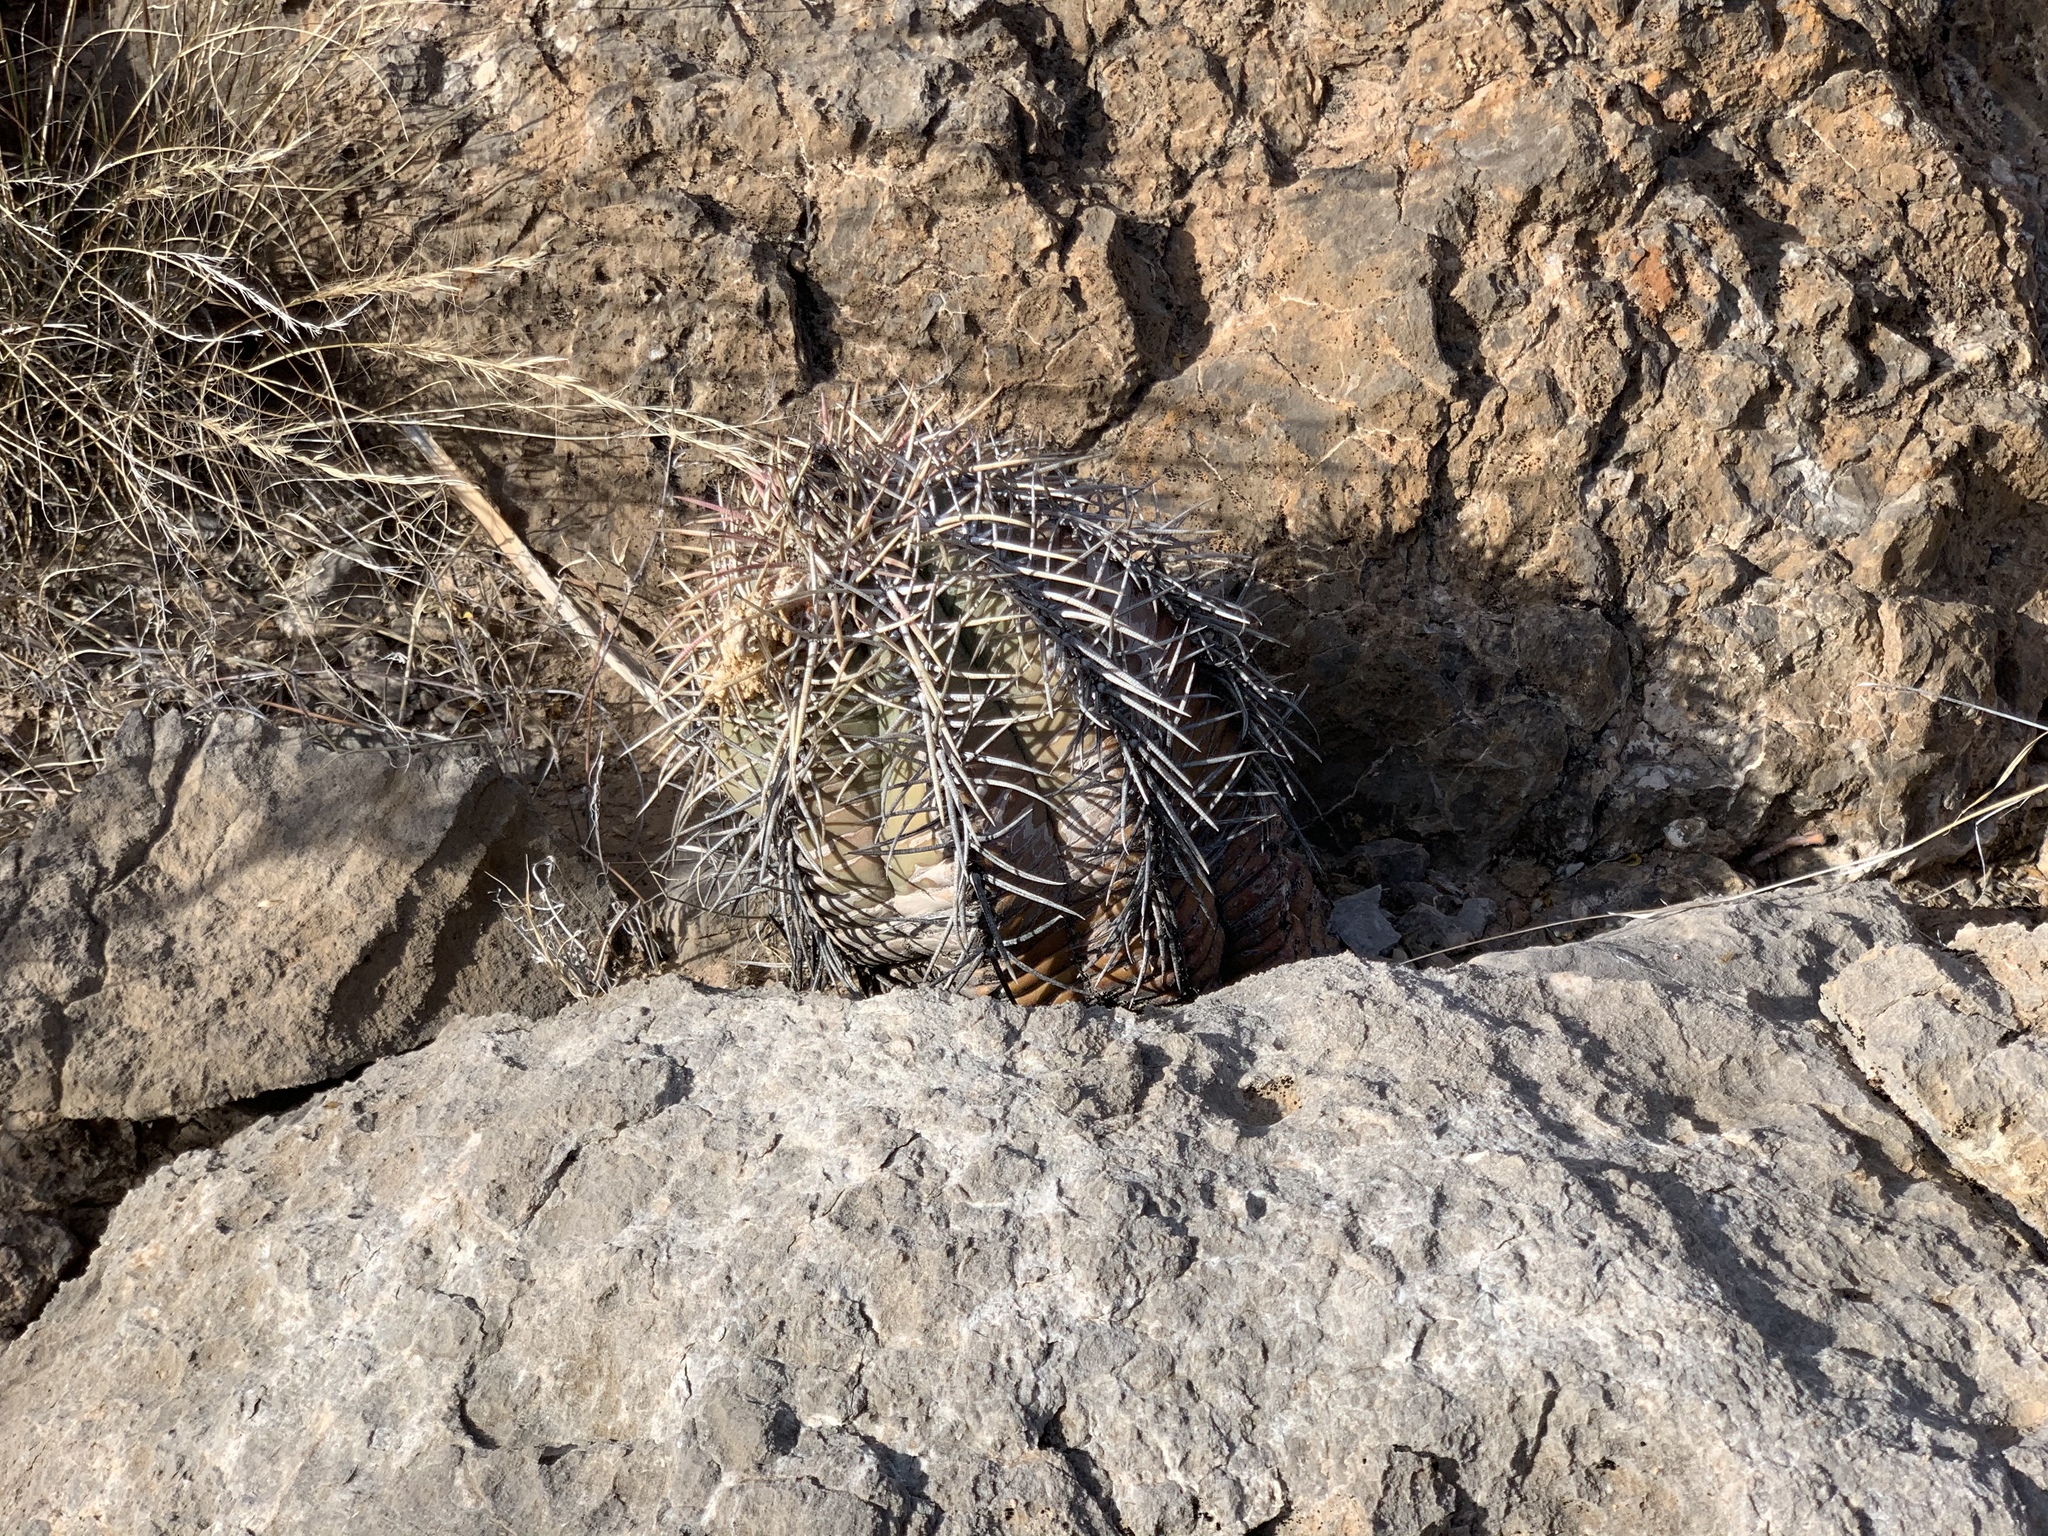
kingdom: Plantae
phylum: Tracheophyta
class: Magnoliopsida
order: Caryophyllales
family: Cactaceae
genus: Echinocactus
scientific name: Echinocactus horizonthalonius
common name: Devilshead
